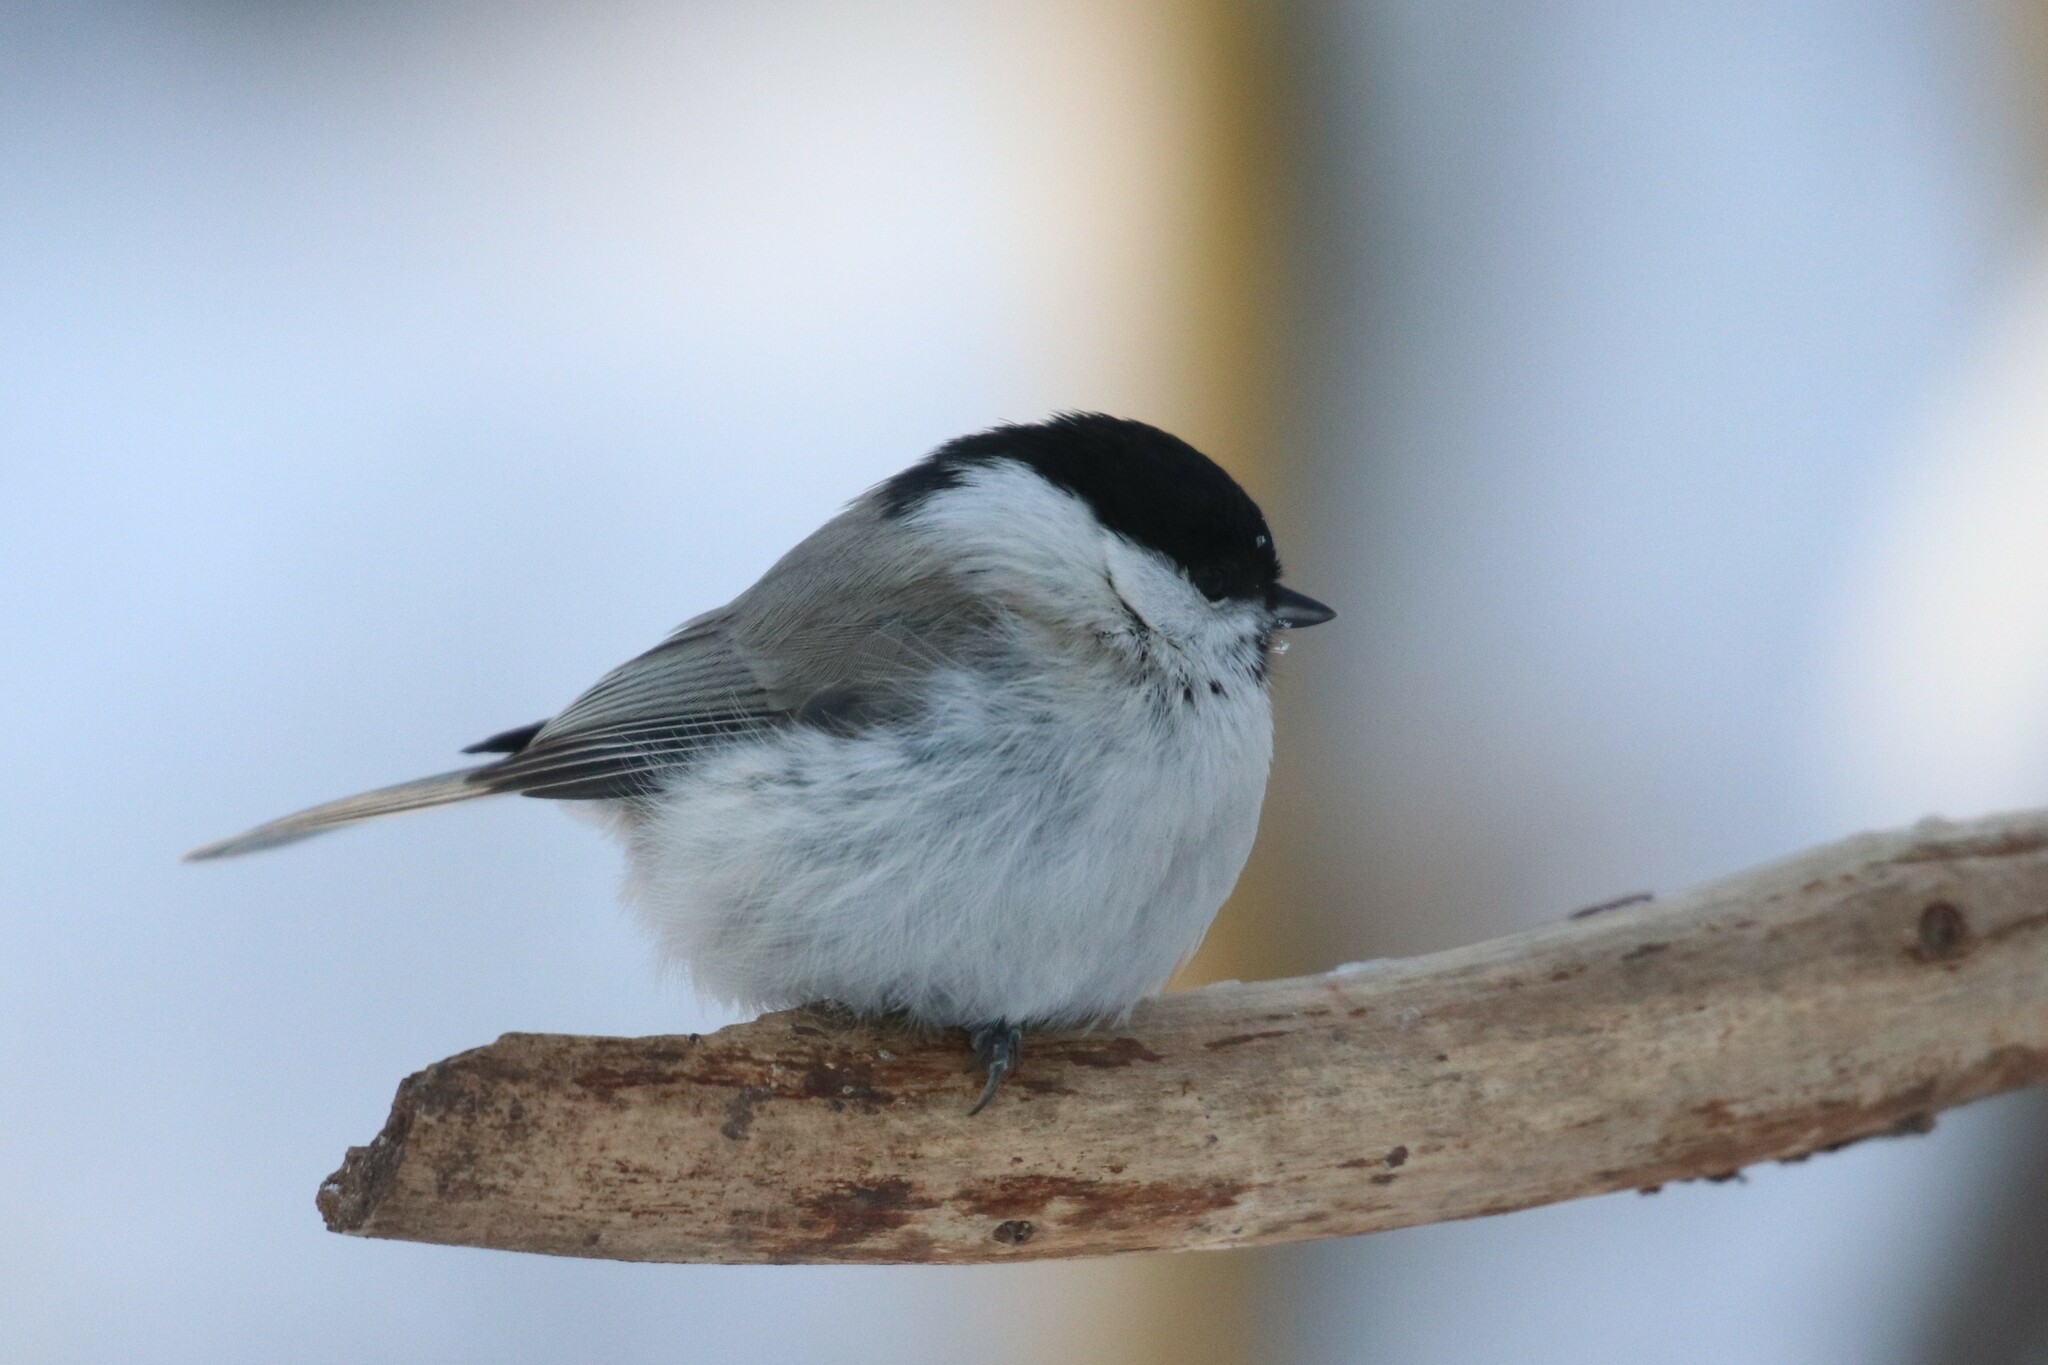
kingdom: Animalia
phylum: Chordata
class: Aves
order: Passeriformes
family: Paridae
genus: Poecile
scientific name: Poecile palustris
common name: Marsh tit
